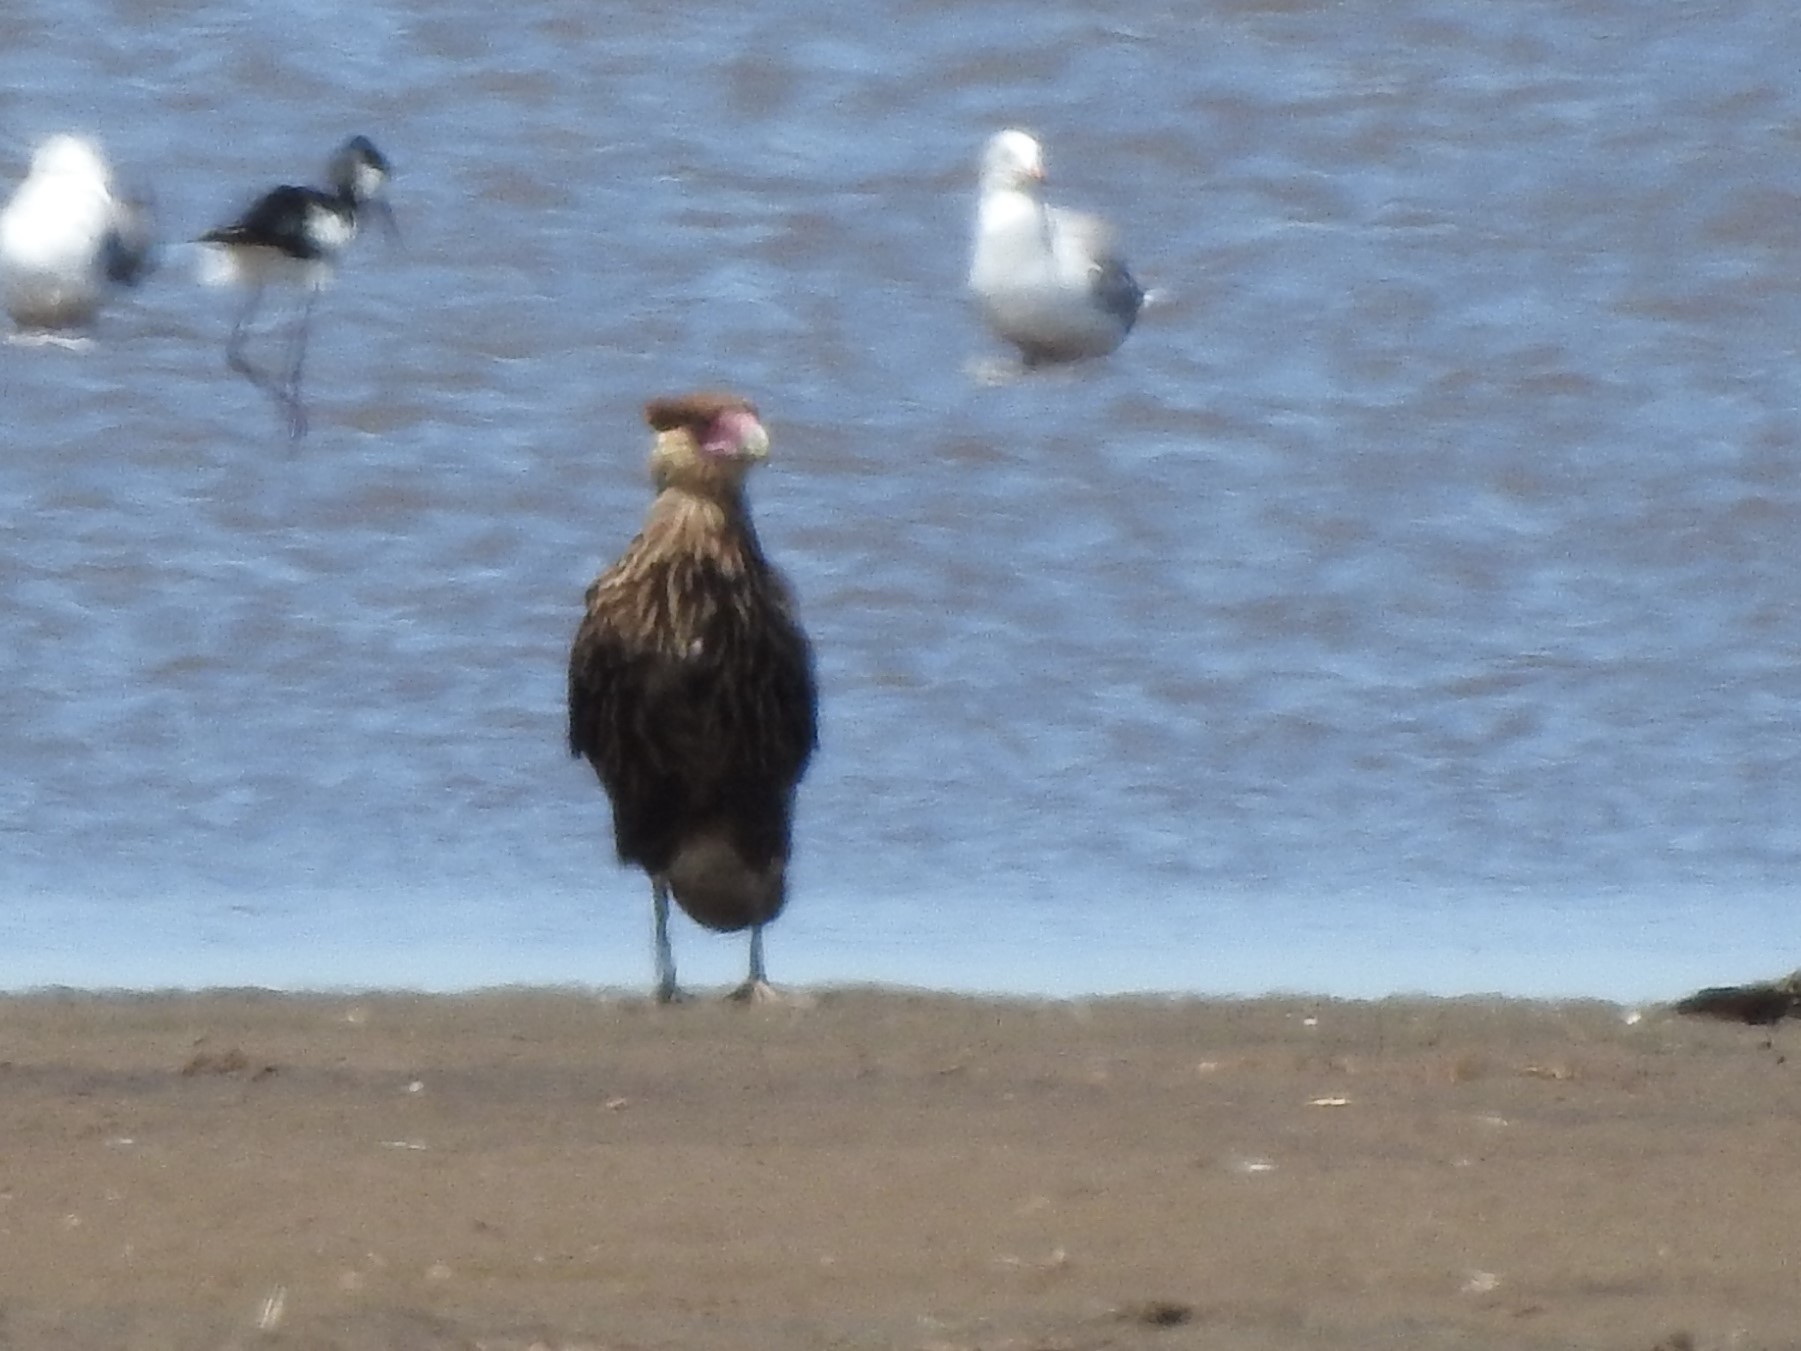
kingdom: Animalia
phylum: Chordata
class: Aves
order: Falconiformes
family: Falconidae
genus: Caracara
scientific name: Caracara plancus
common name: Southern caracara
